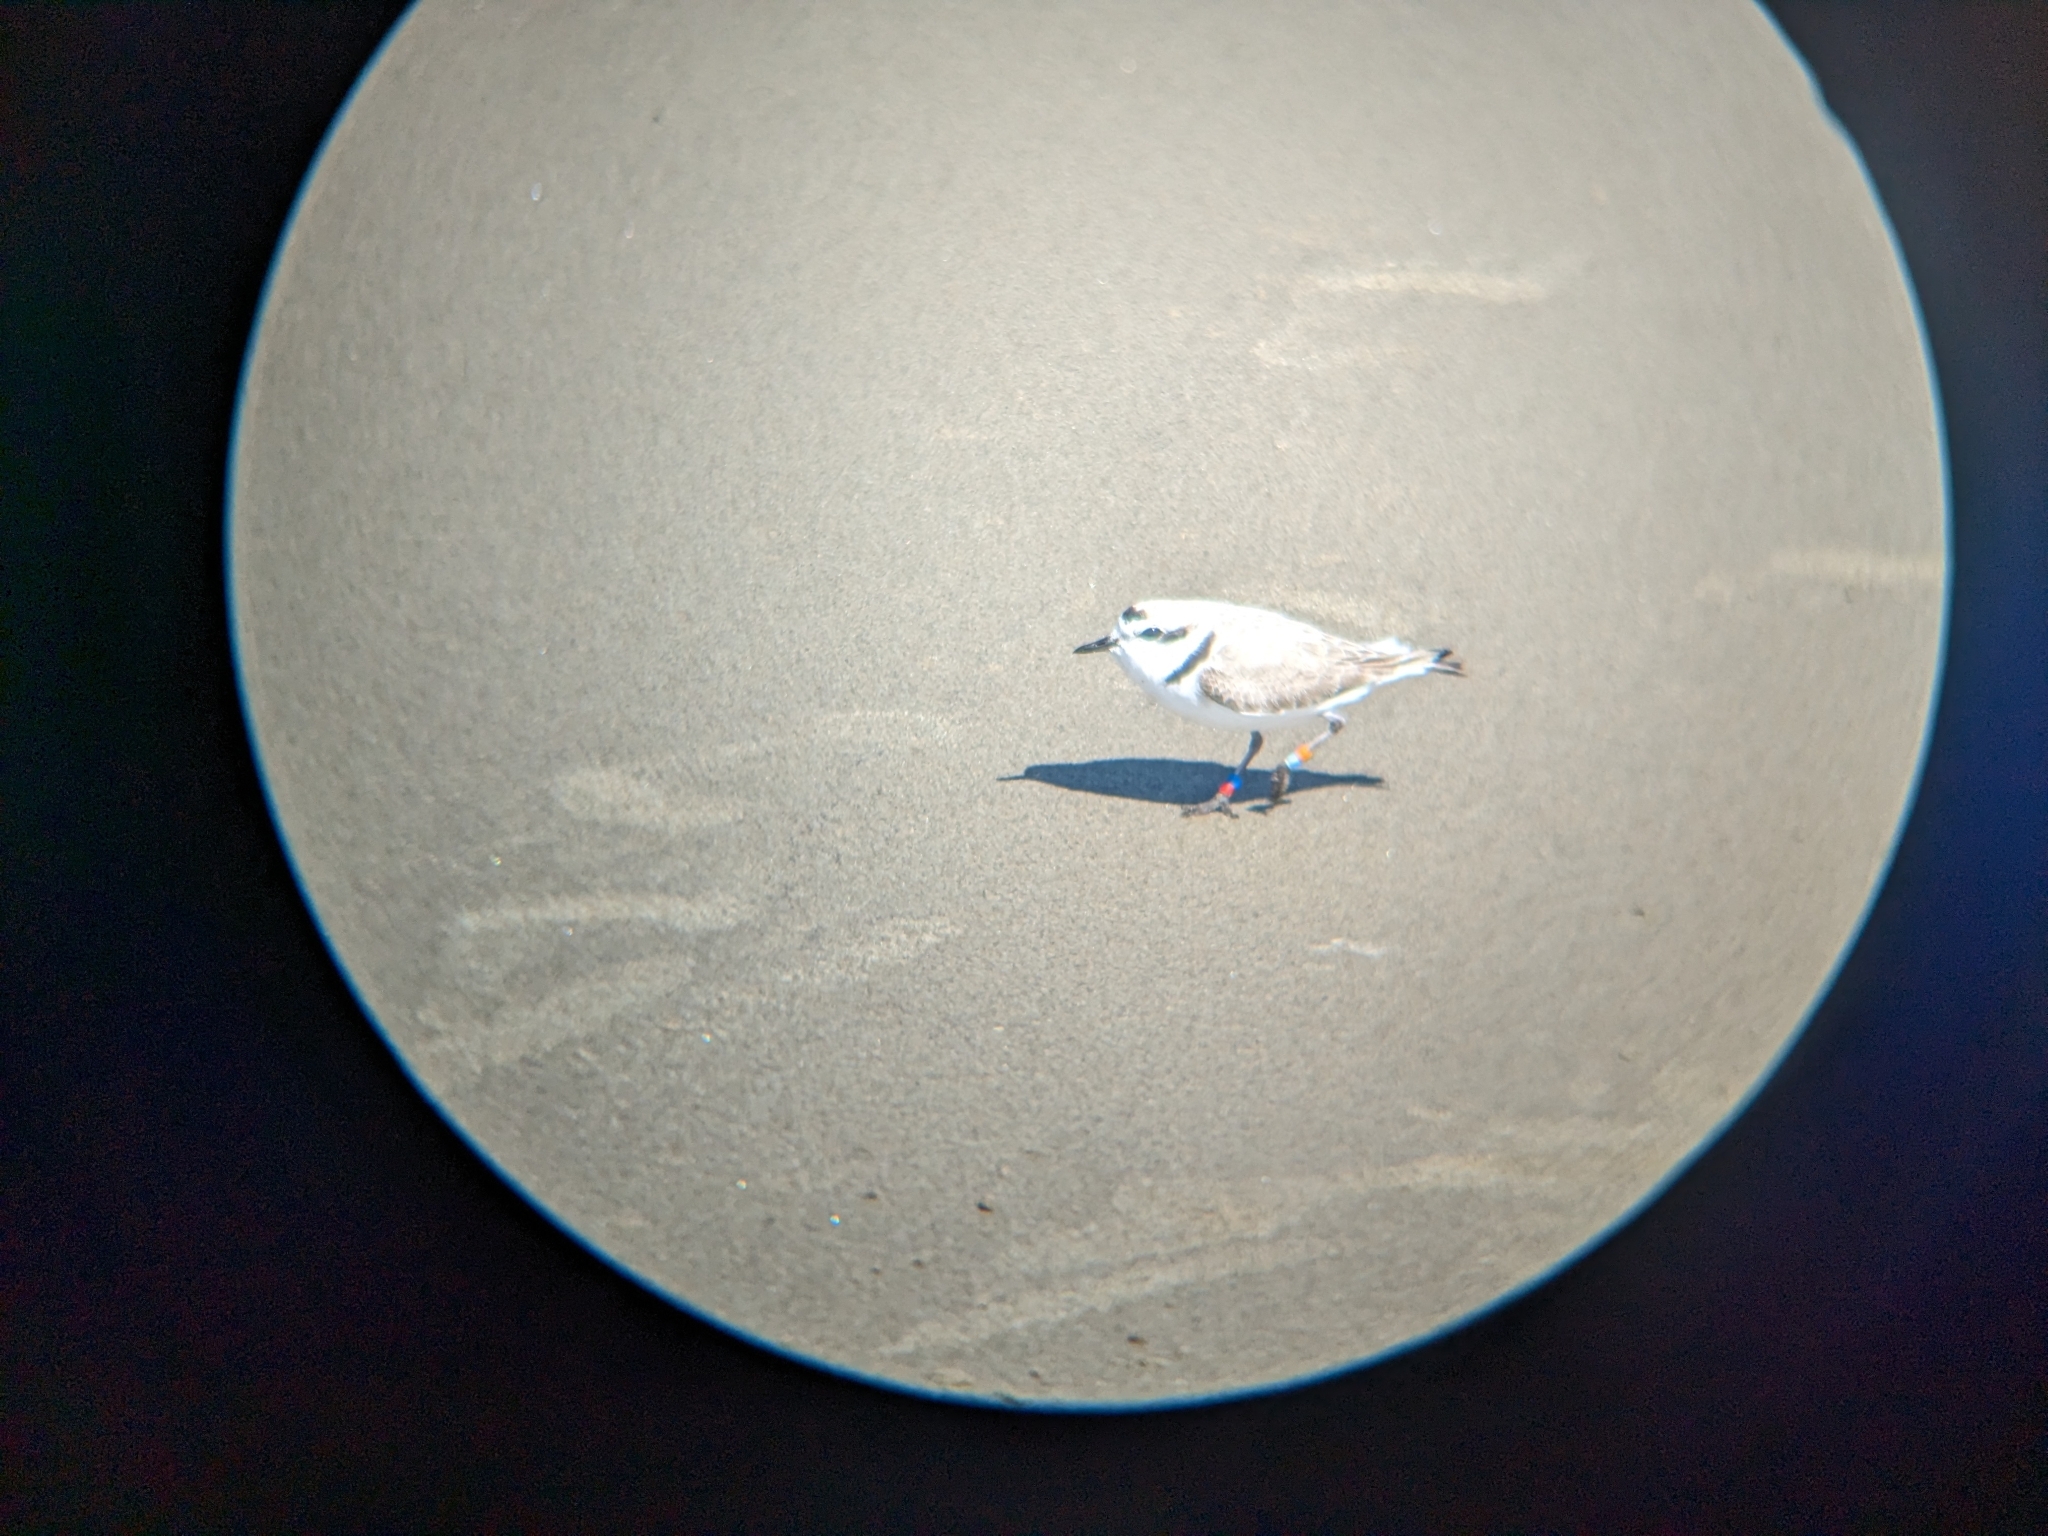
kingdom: Animalia
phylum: Chordata
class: Aves
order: Charadriiformes
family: Charadriidae
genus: Anarhynchus
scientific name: Anarhynchus
